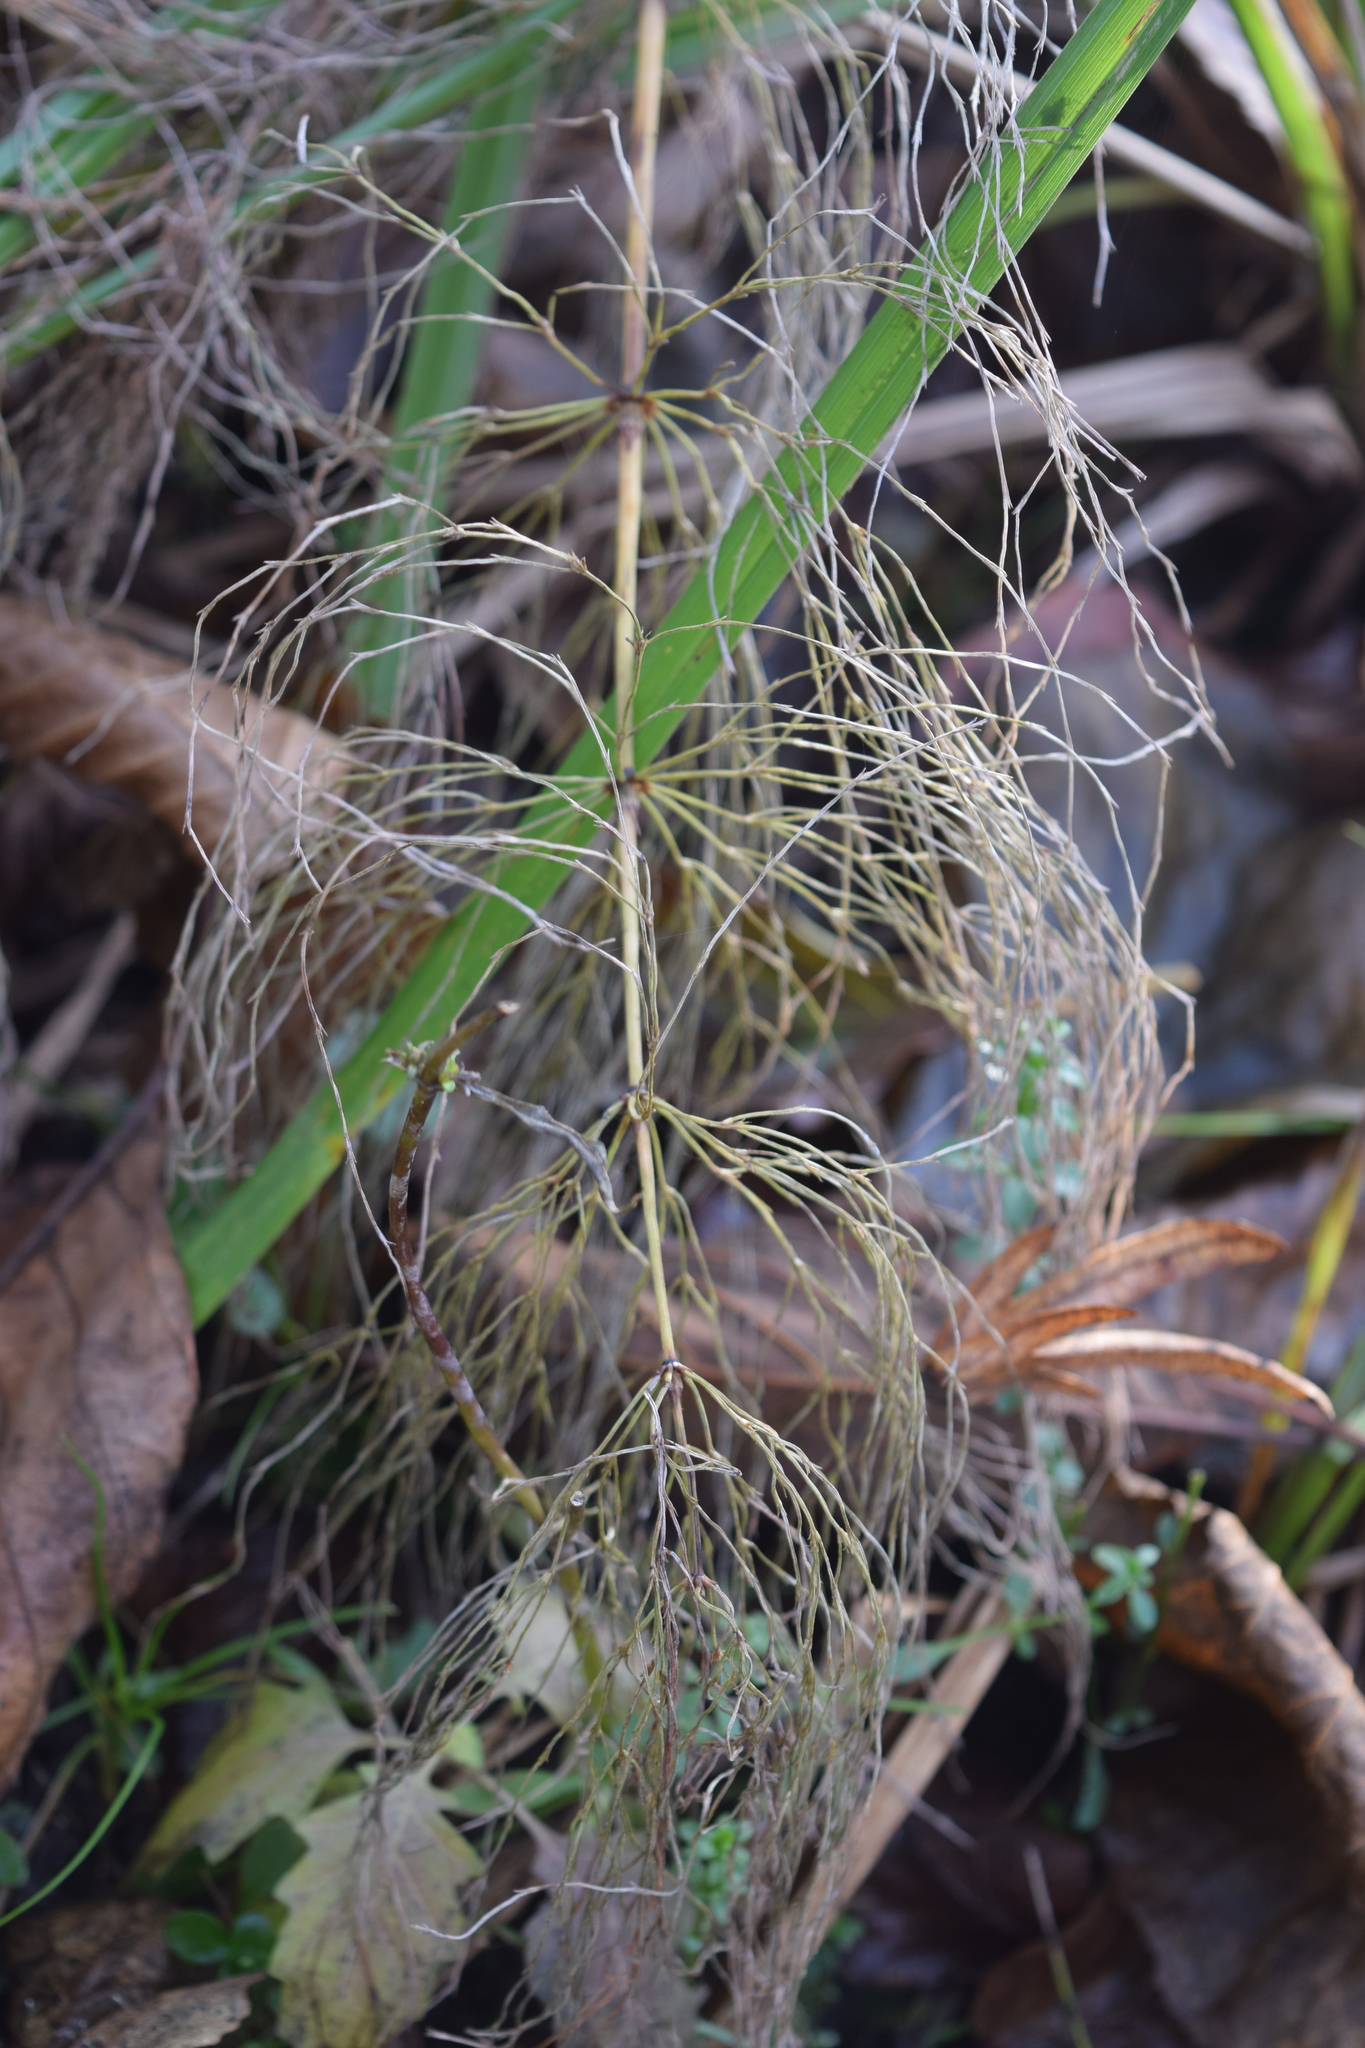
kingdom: Plantae
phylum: Tracheophyta
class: Polypodiopsida
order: Equisetales
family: Equisetaceae
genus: Equisetum
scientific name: Equisetum sylvaticum
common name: Wood horsetail
